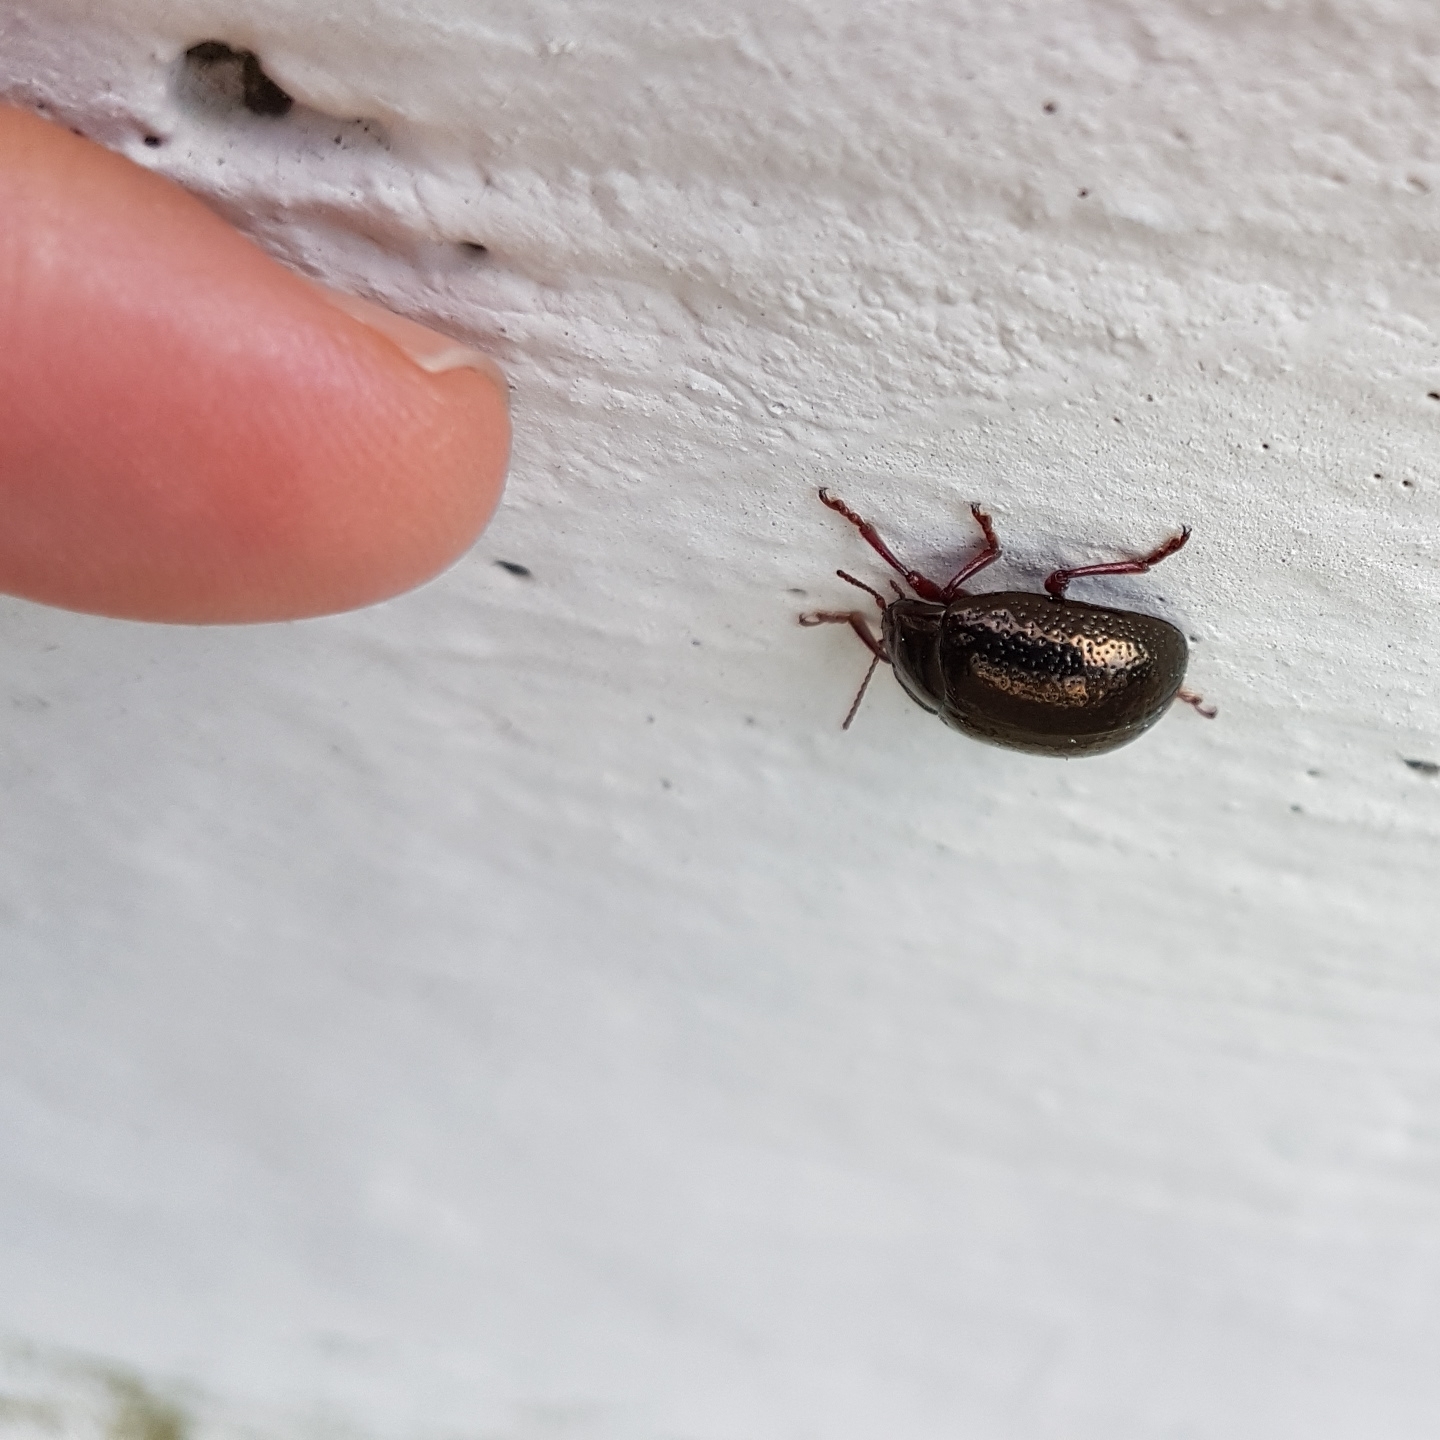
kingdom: Animalia
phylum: Arthropoda
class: Insecta
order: Coleoptera
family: Chrysomelidae
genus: Chrysolina
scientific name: Chrysolina bankii
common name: Leaf beetle
